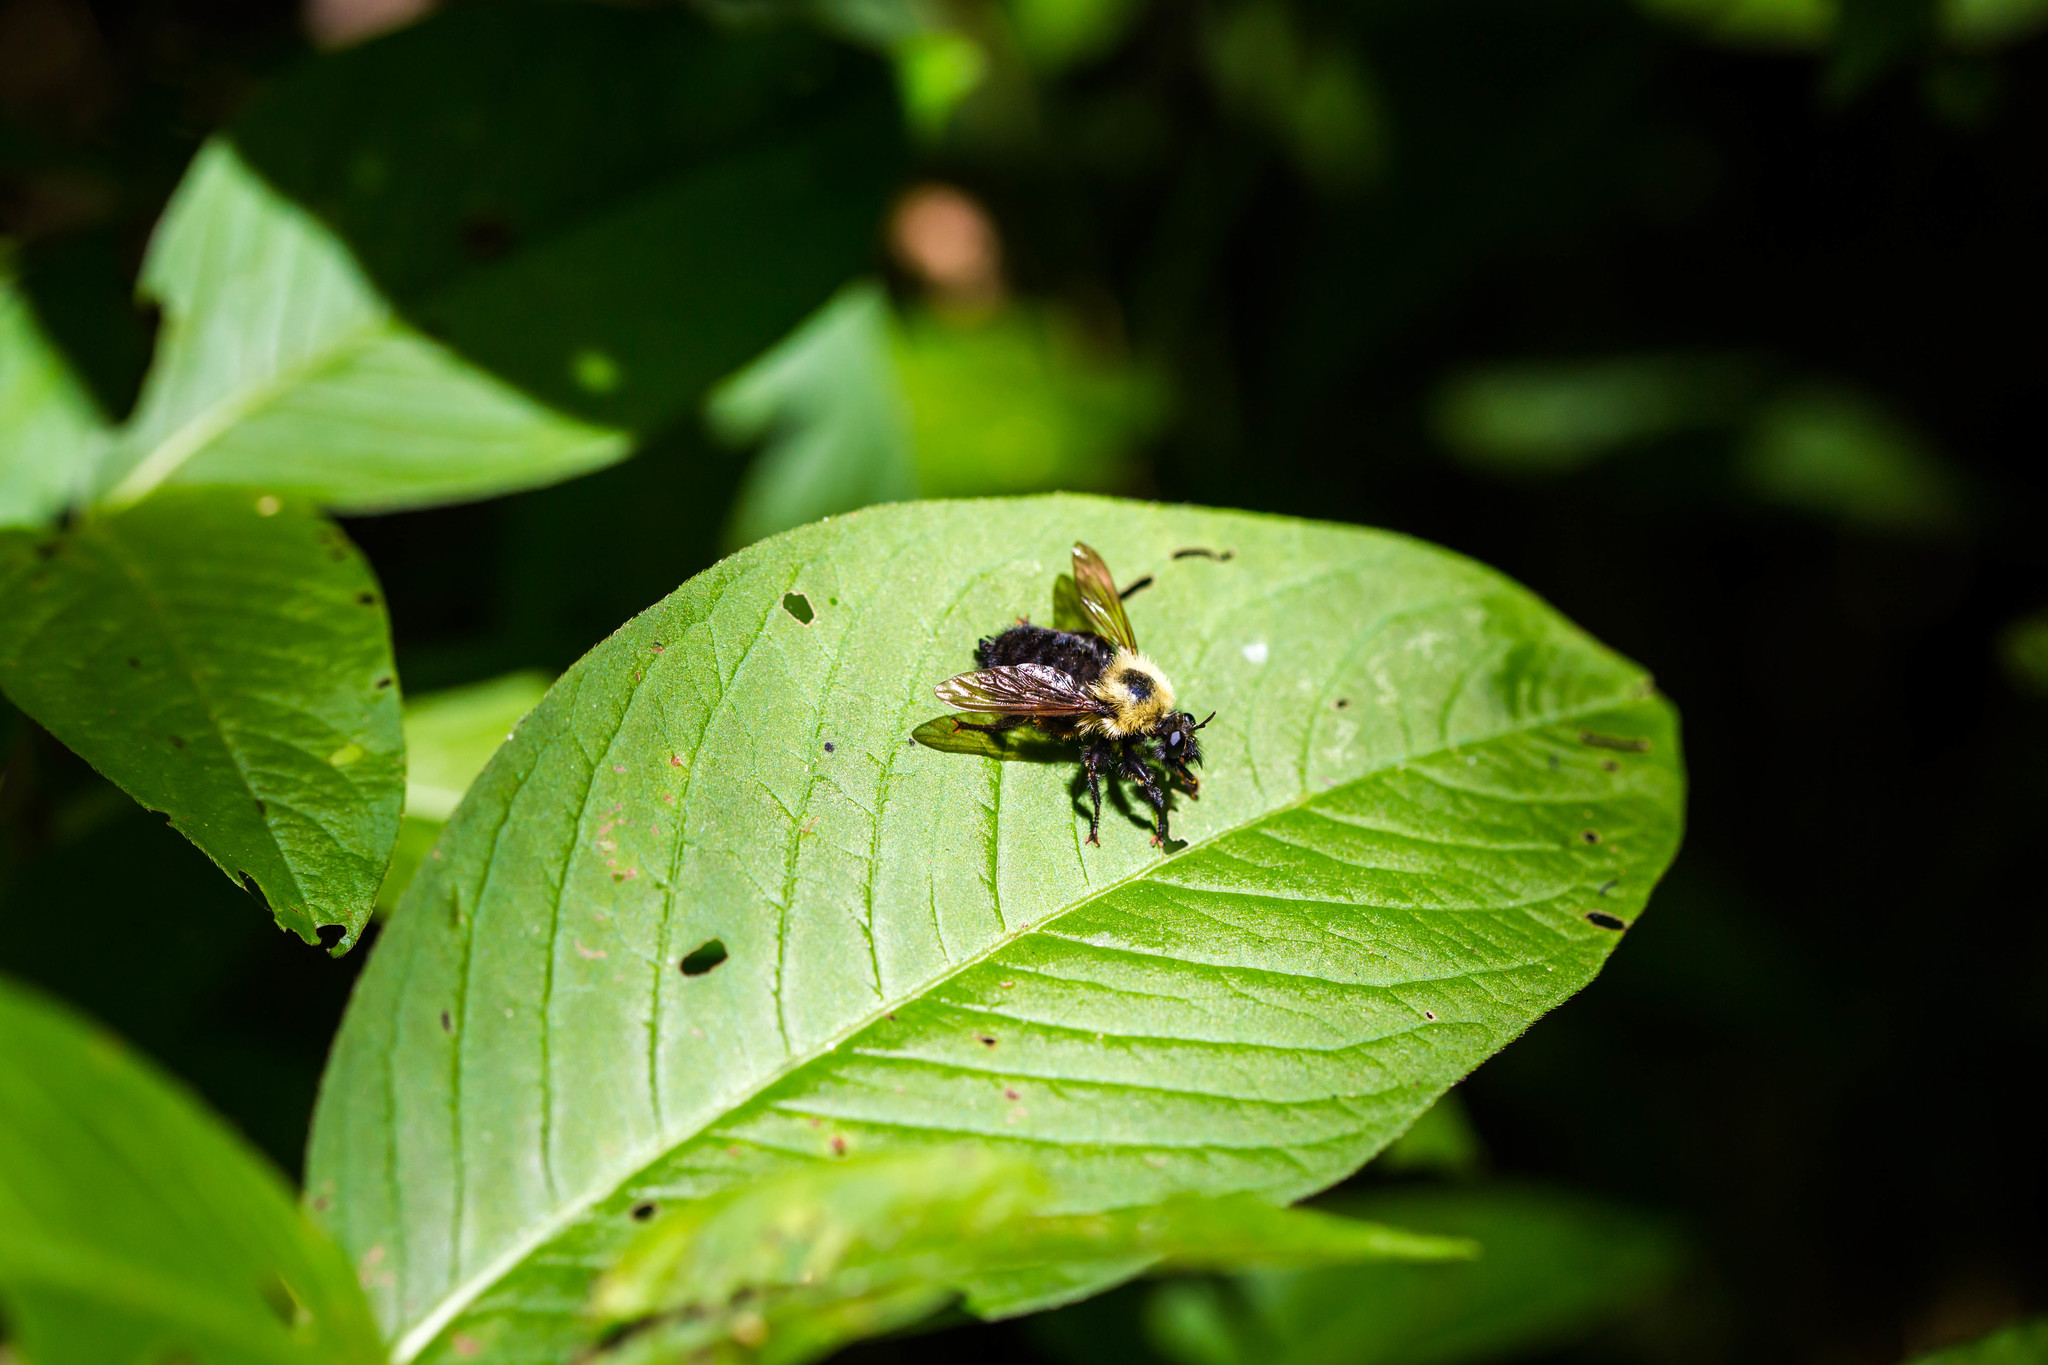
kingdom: Animalia
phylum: Arthropoda
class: Insecta
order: Diptera
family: Asilidae
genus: Laphria
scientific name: Laphria thoracica
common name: Bumble bee mimic robber fly
